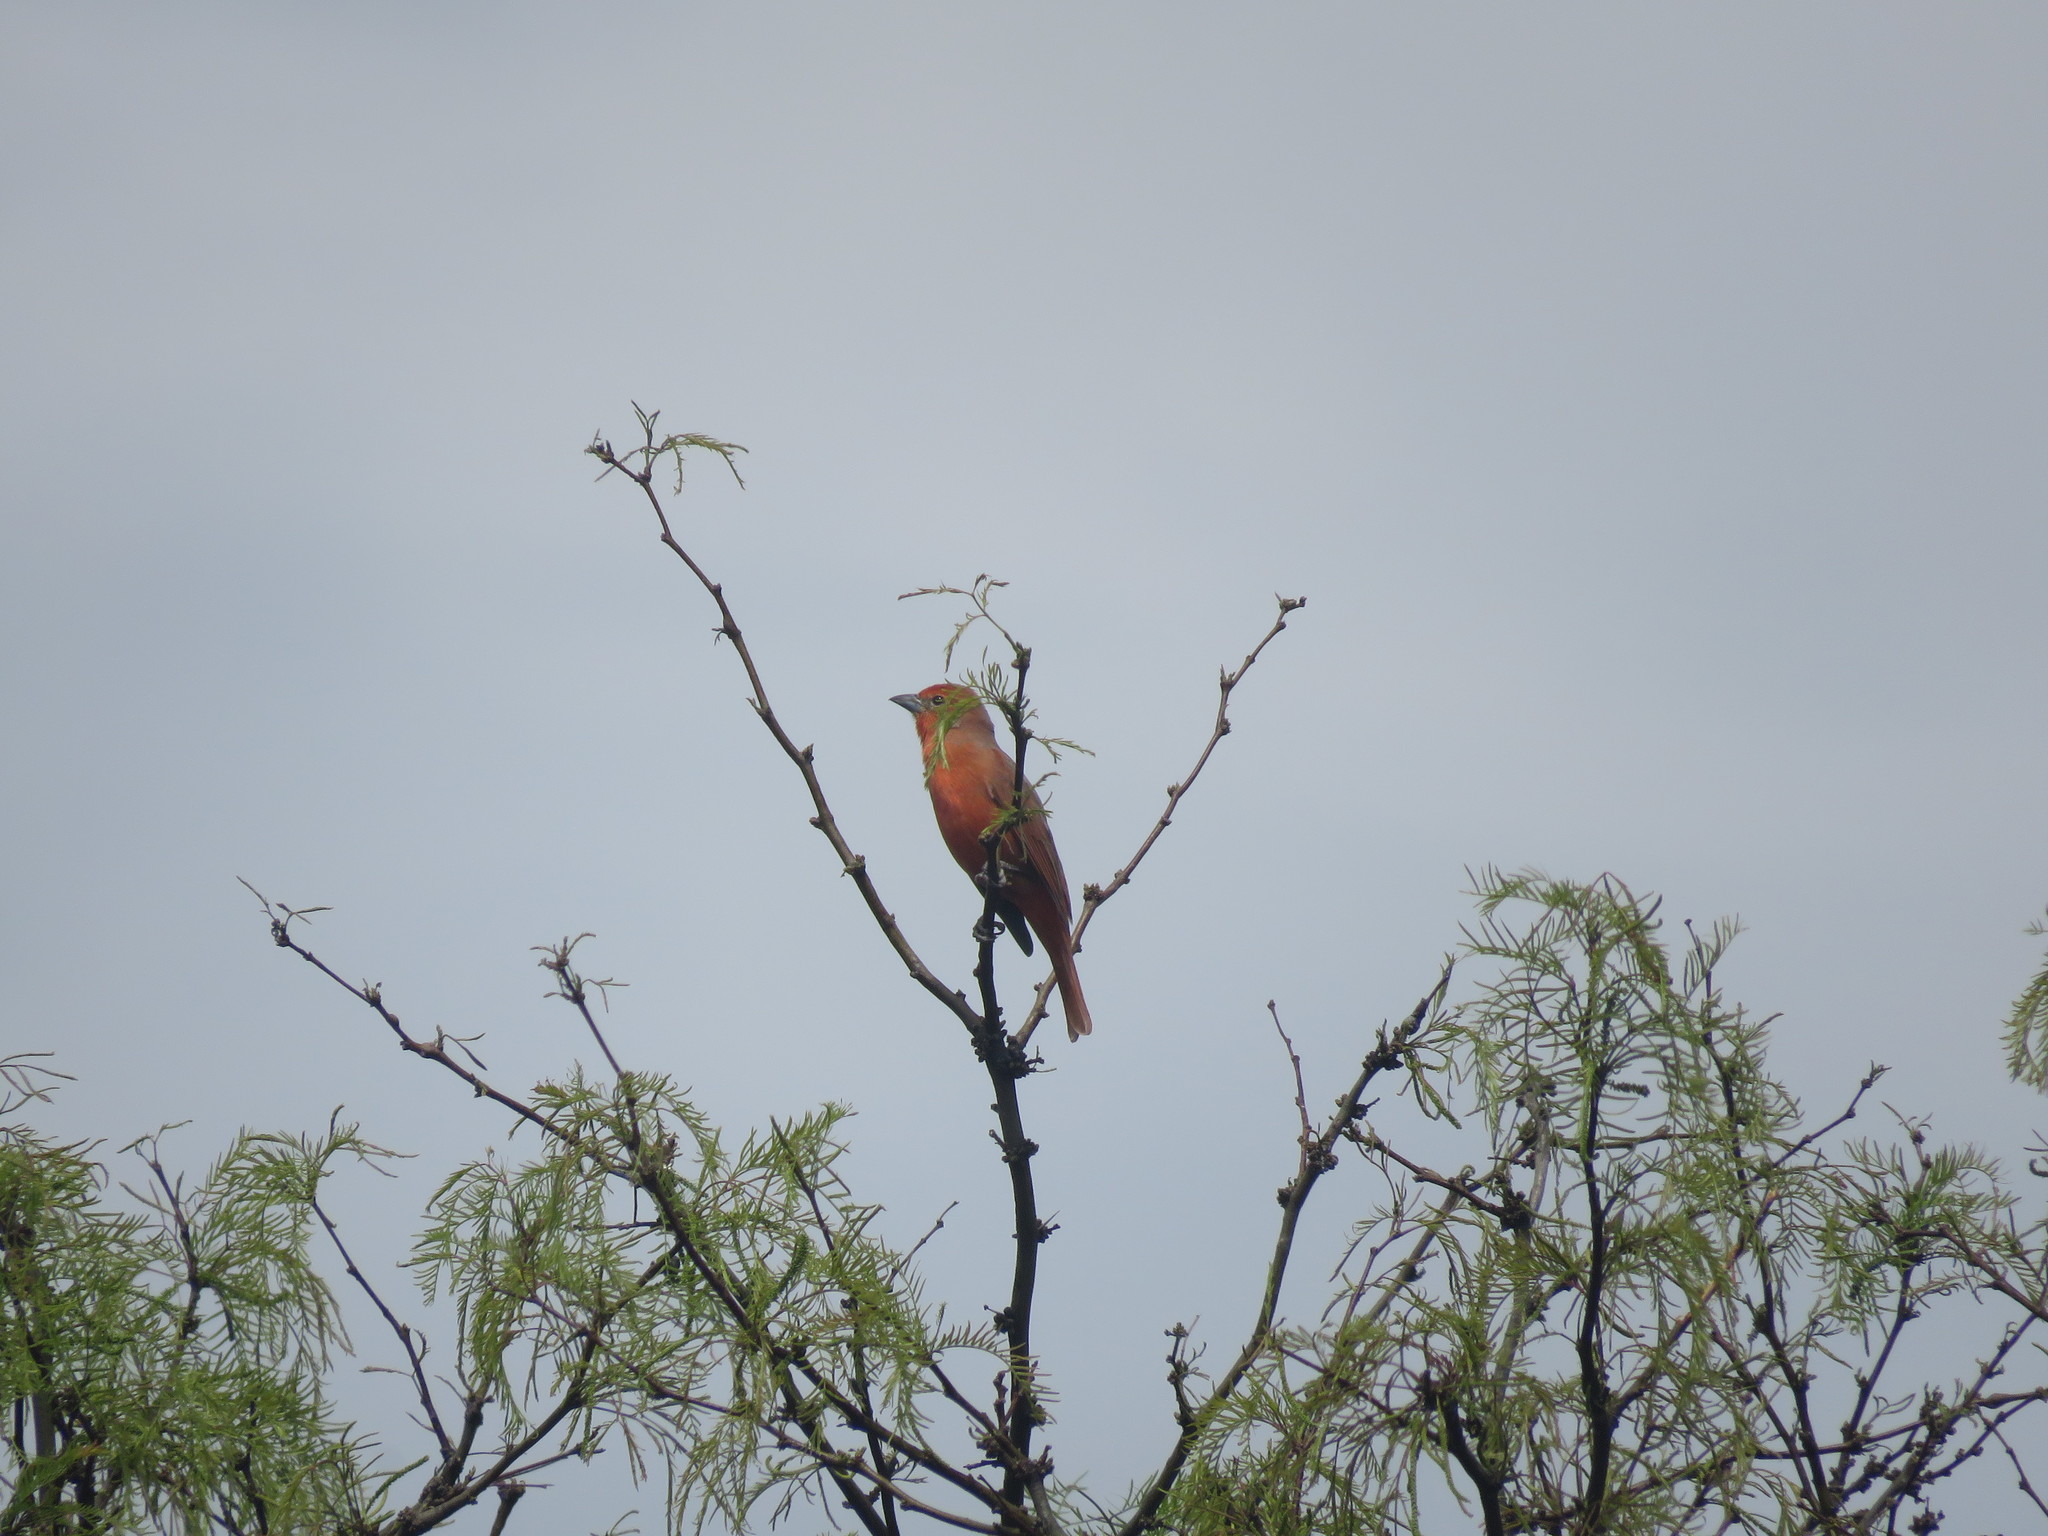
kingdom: Animalia
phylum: Chordata
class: Aves
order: Passeriformes
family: Cardinalidae
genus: Piranga
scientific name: Piranga flava
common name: Red tanager
